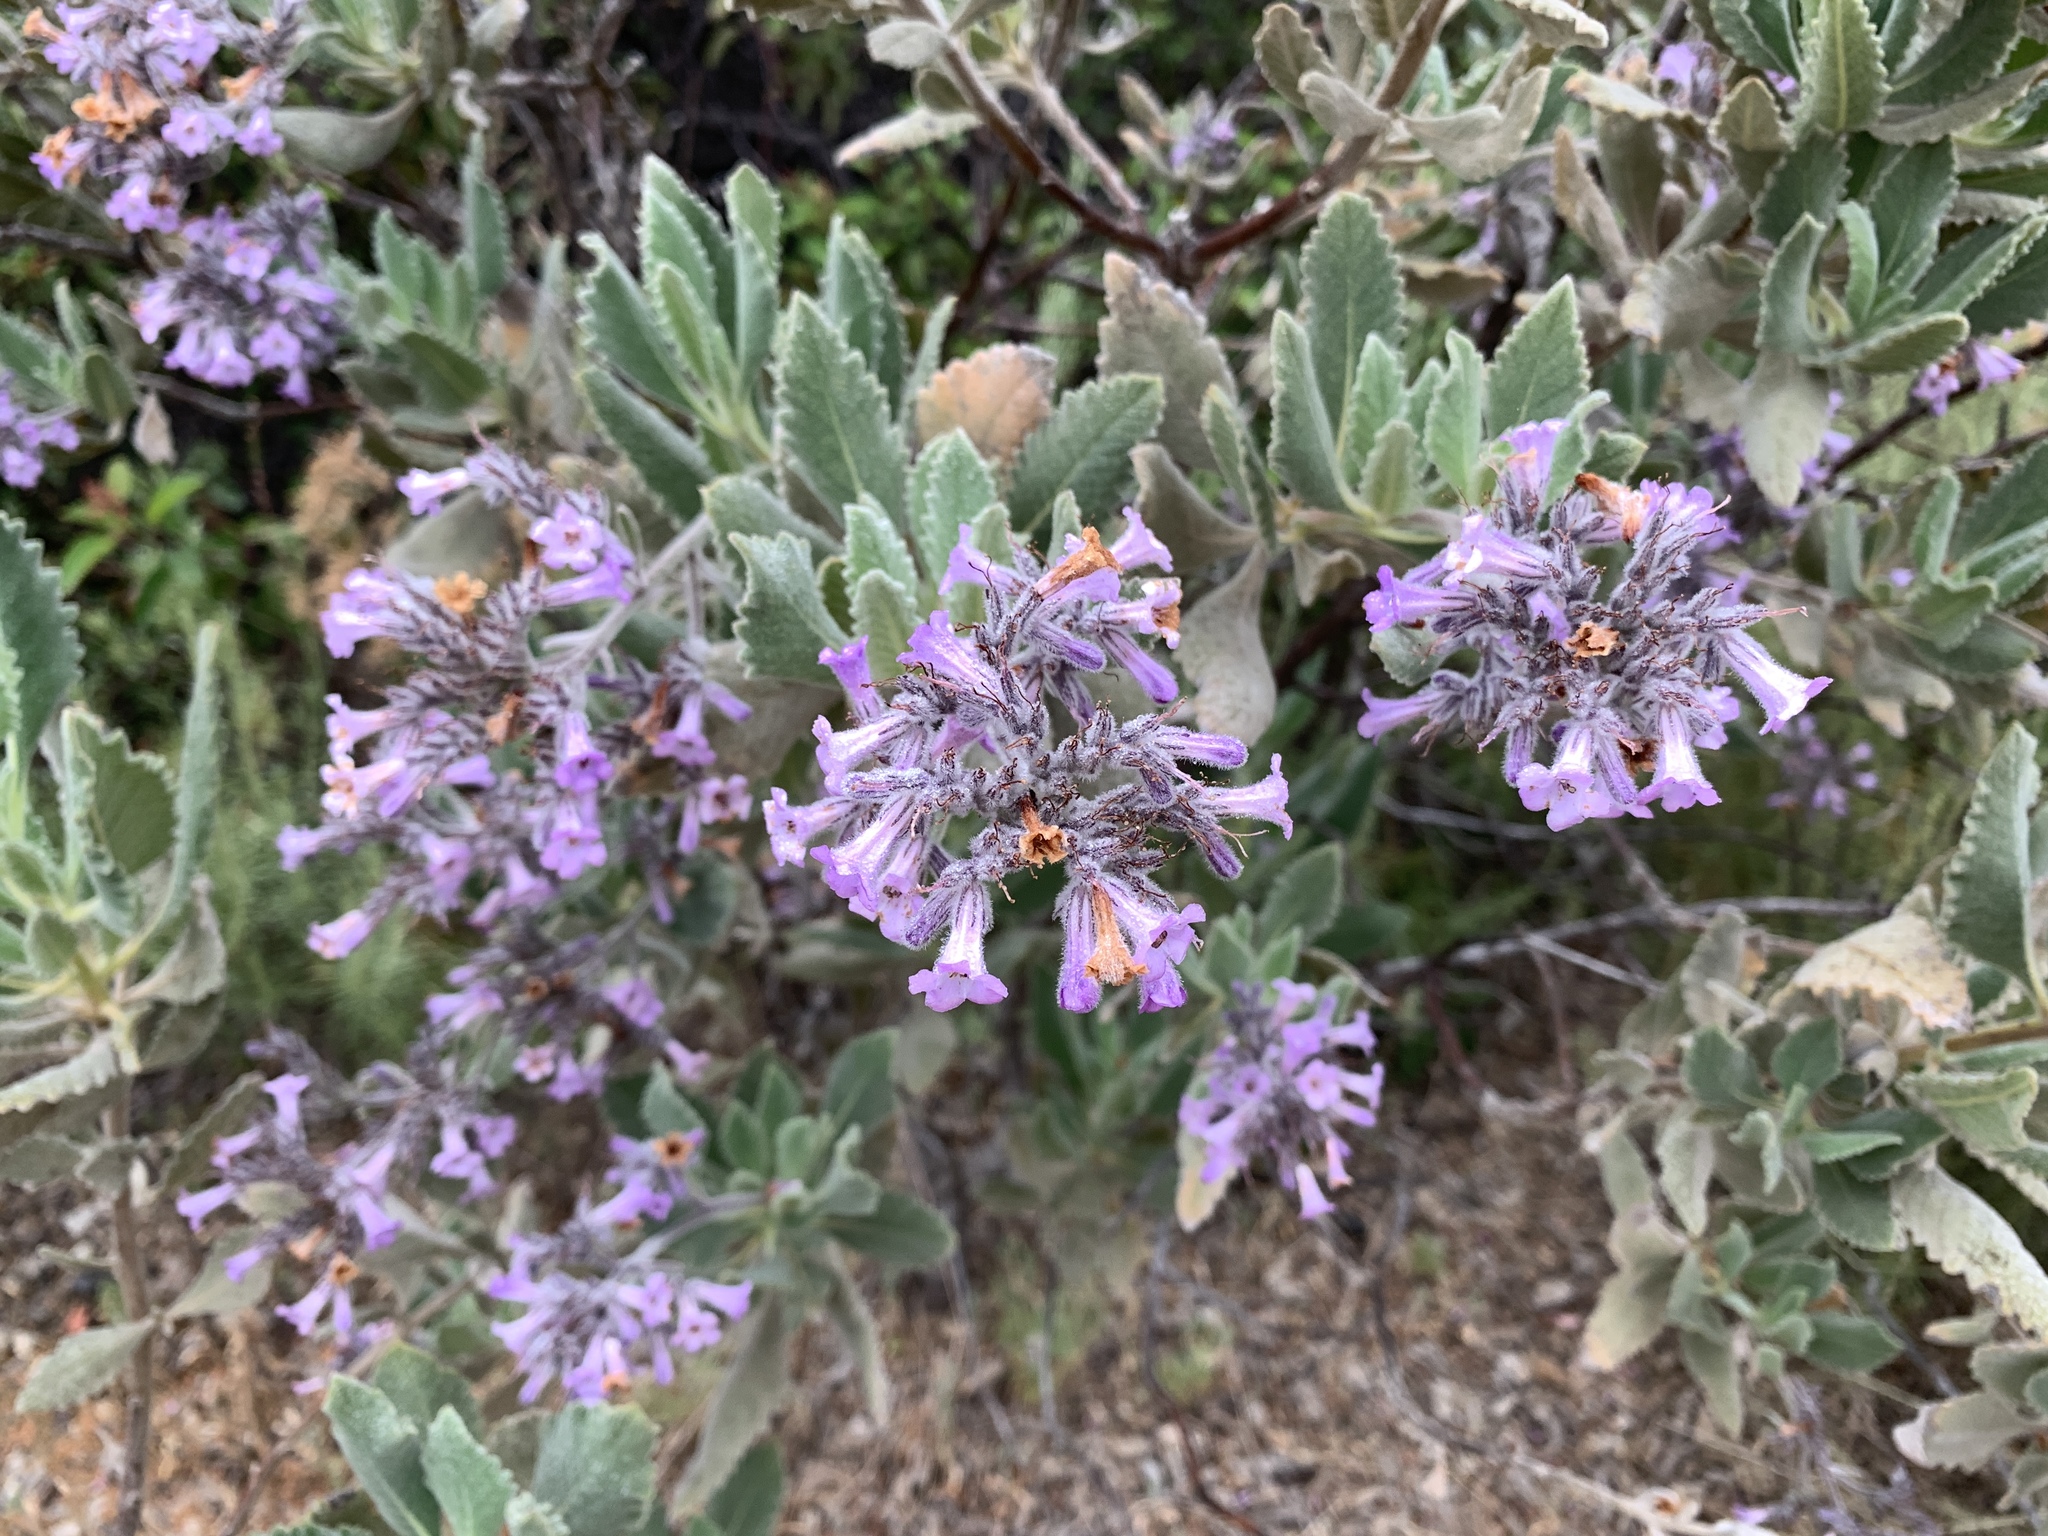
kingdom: Plantae
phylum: Tracheophyta
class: Magnoliopsida
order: Boraginales
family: Namaceae
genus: Eriodictyon
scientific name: Eriodictyon crassifolium
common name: Thick-leaf yerba-santa
